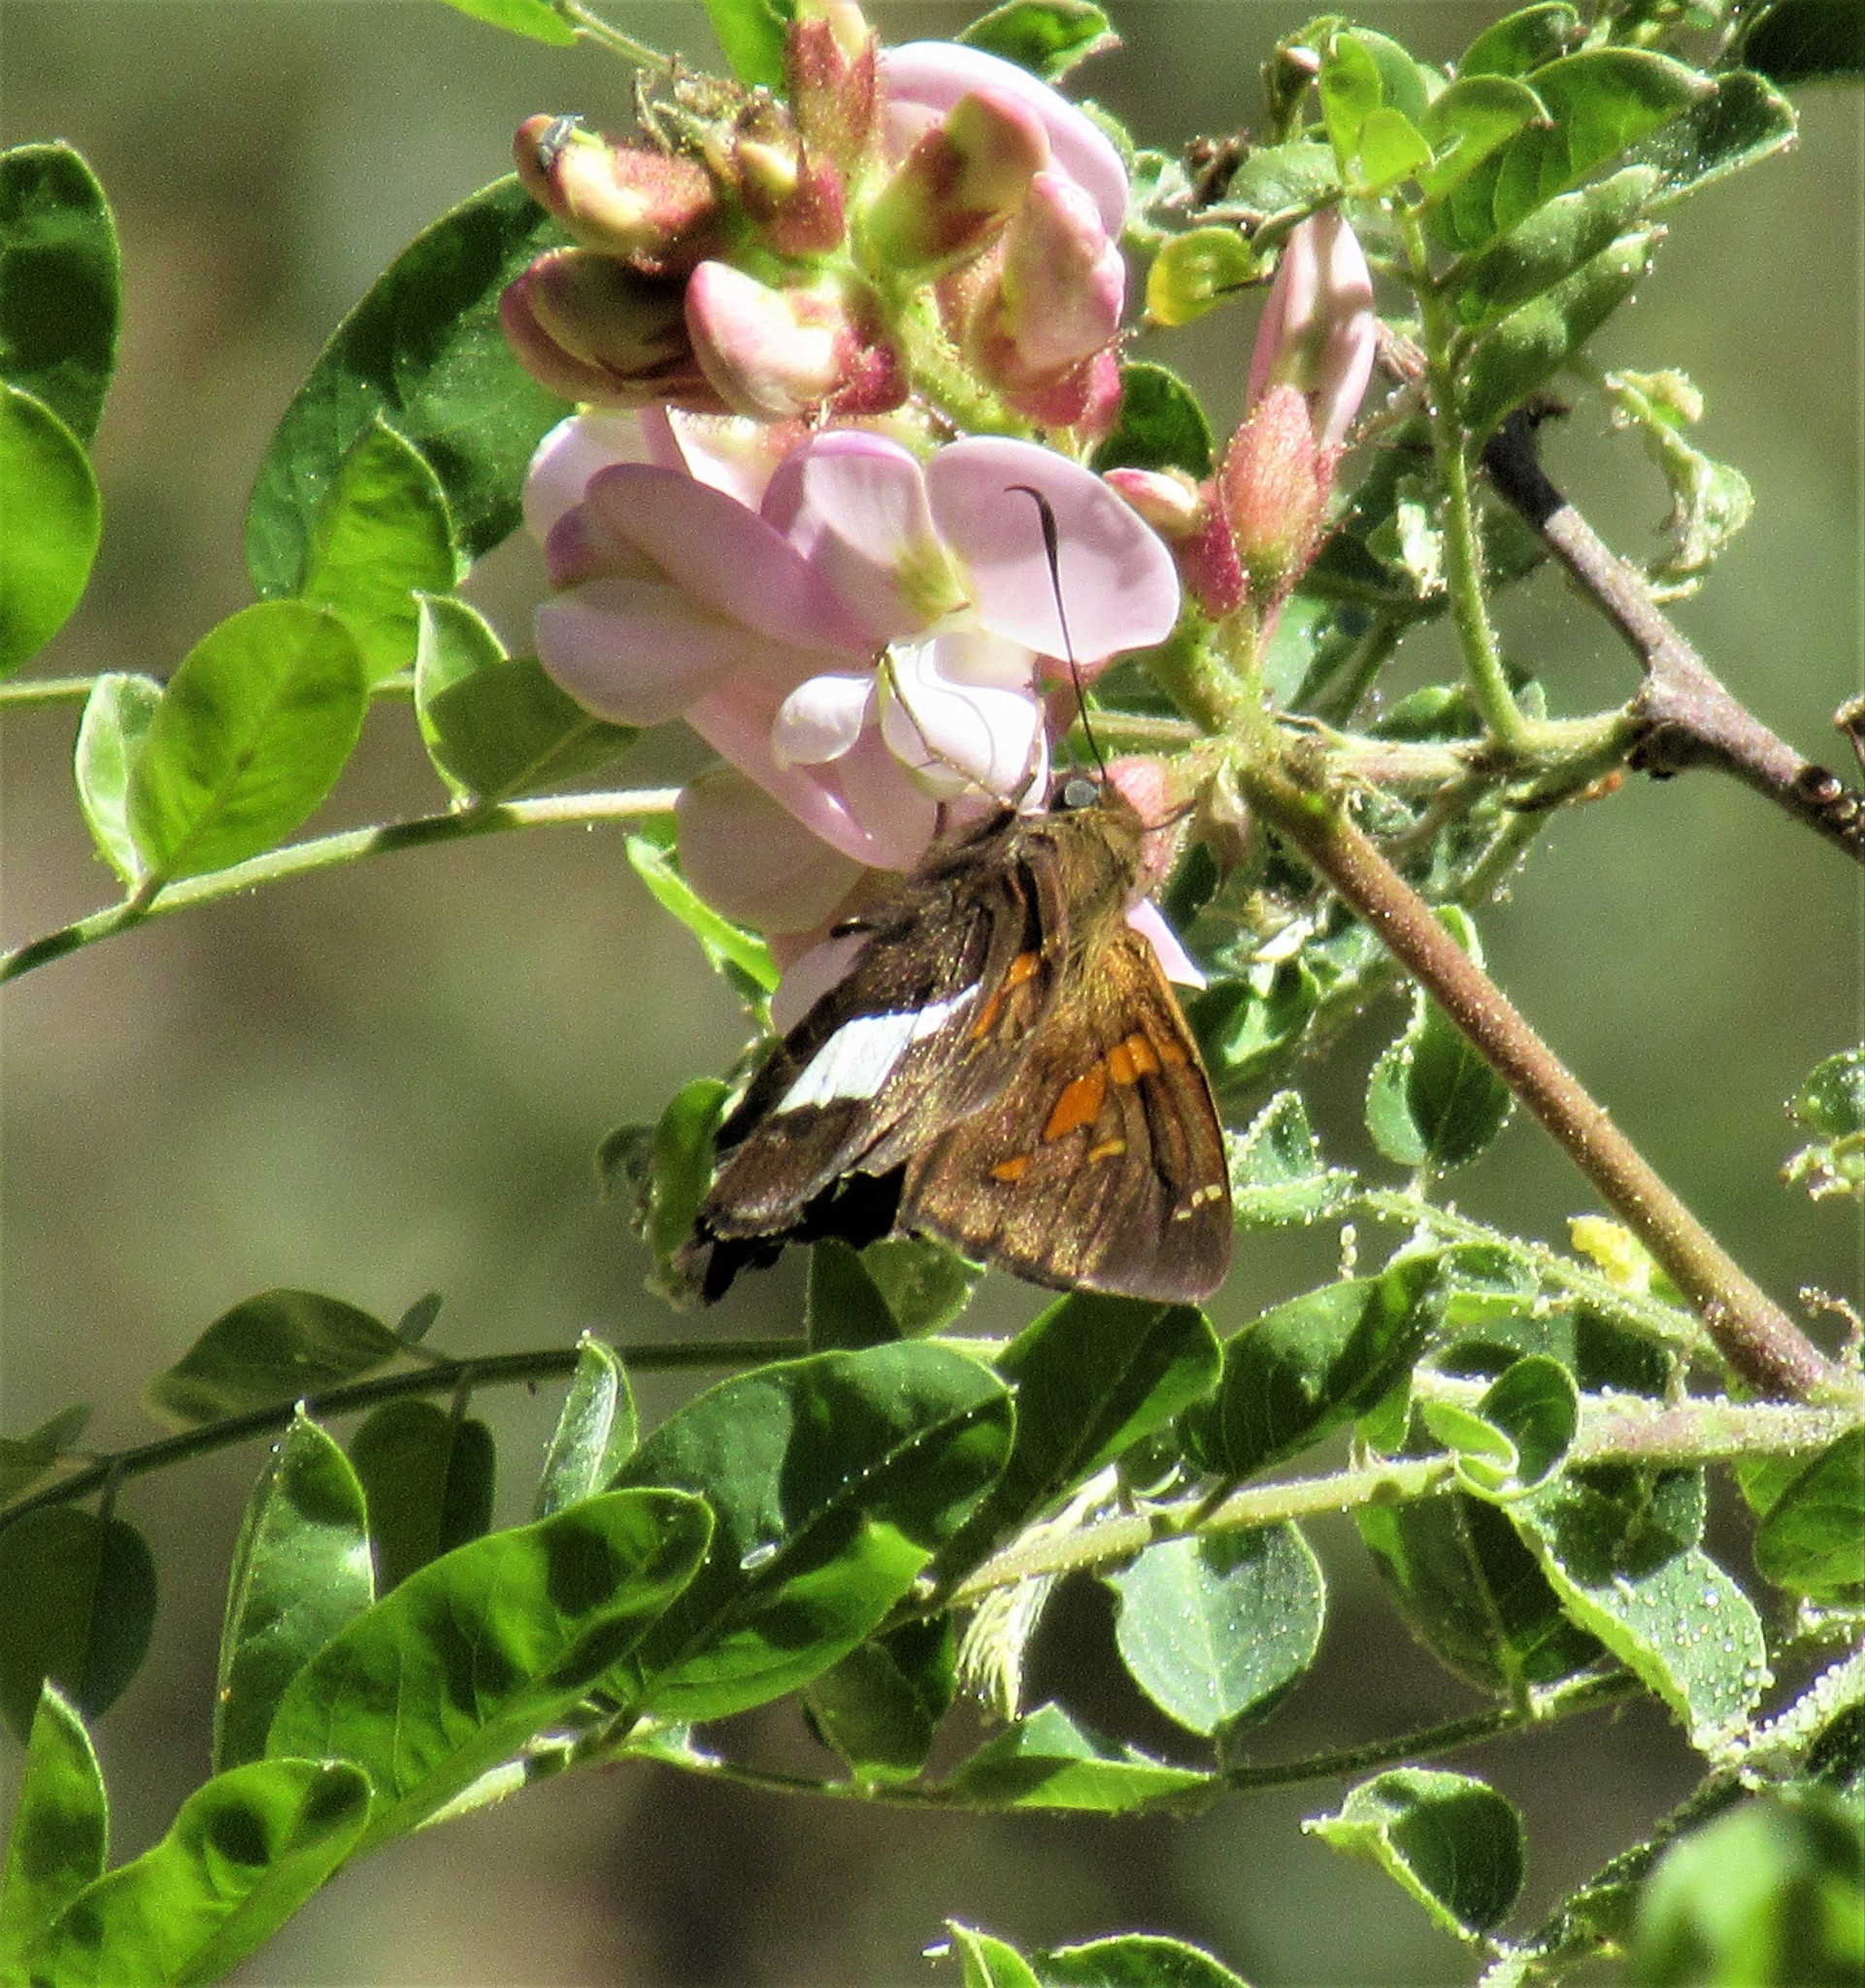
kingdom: Animalia
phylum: Arthropoda
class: Insecta
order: Lepidoptera
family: Hesperiidae
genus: Epargyreus
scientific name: Epargyreus clarus
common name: Silver-spotted skipper
